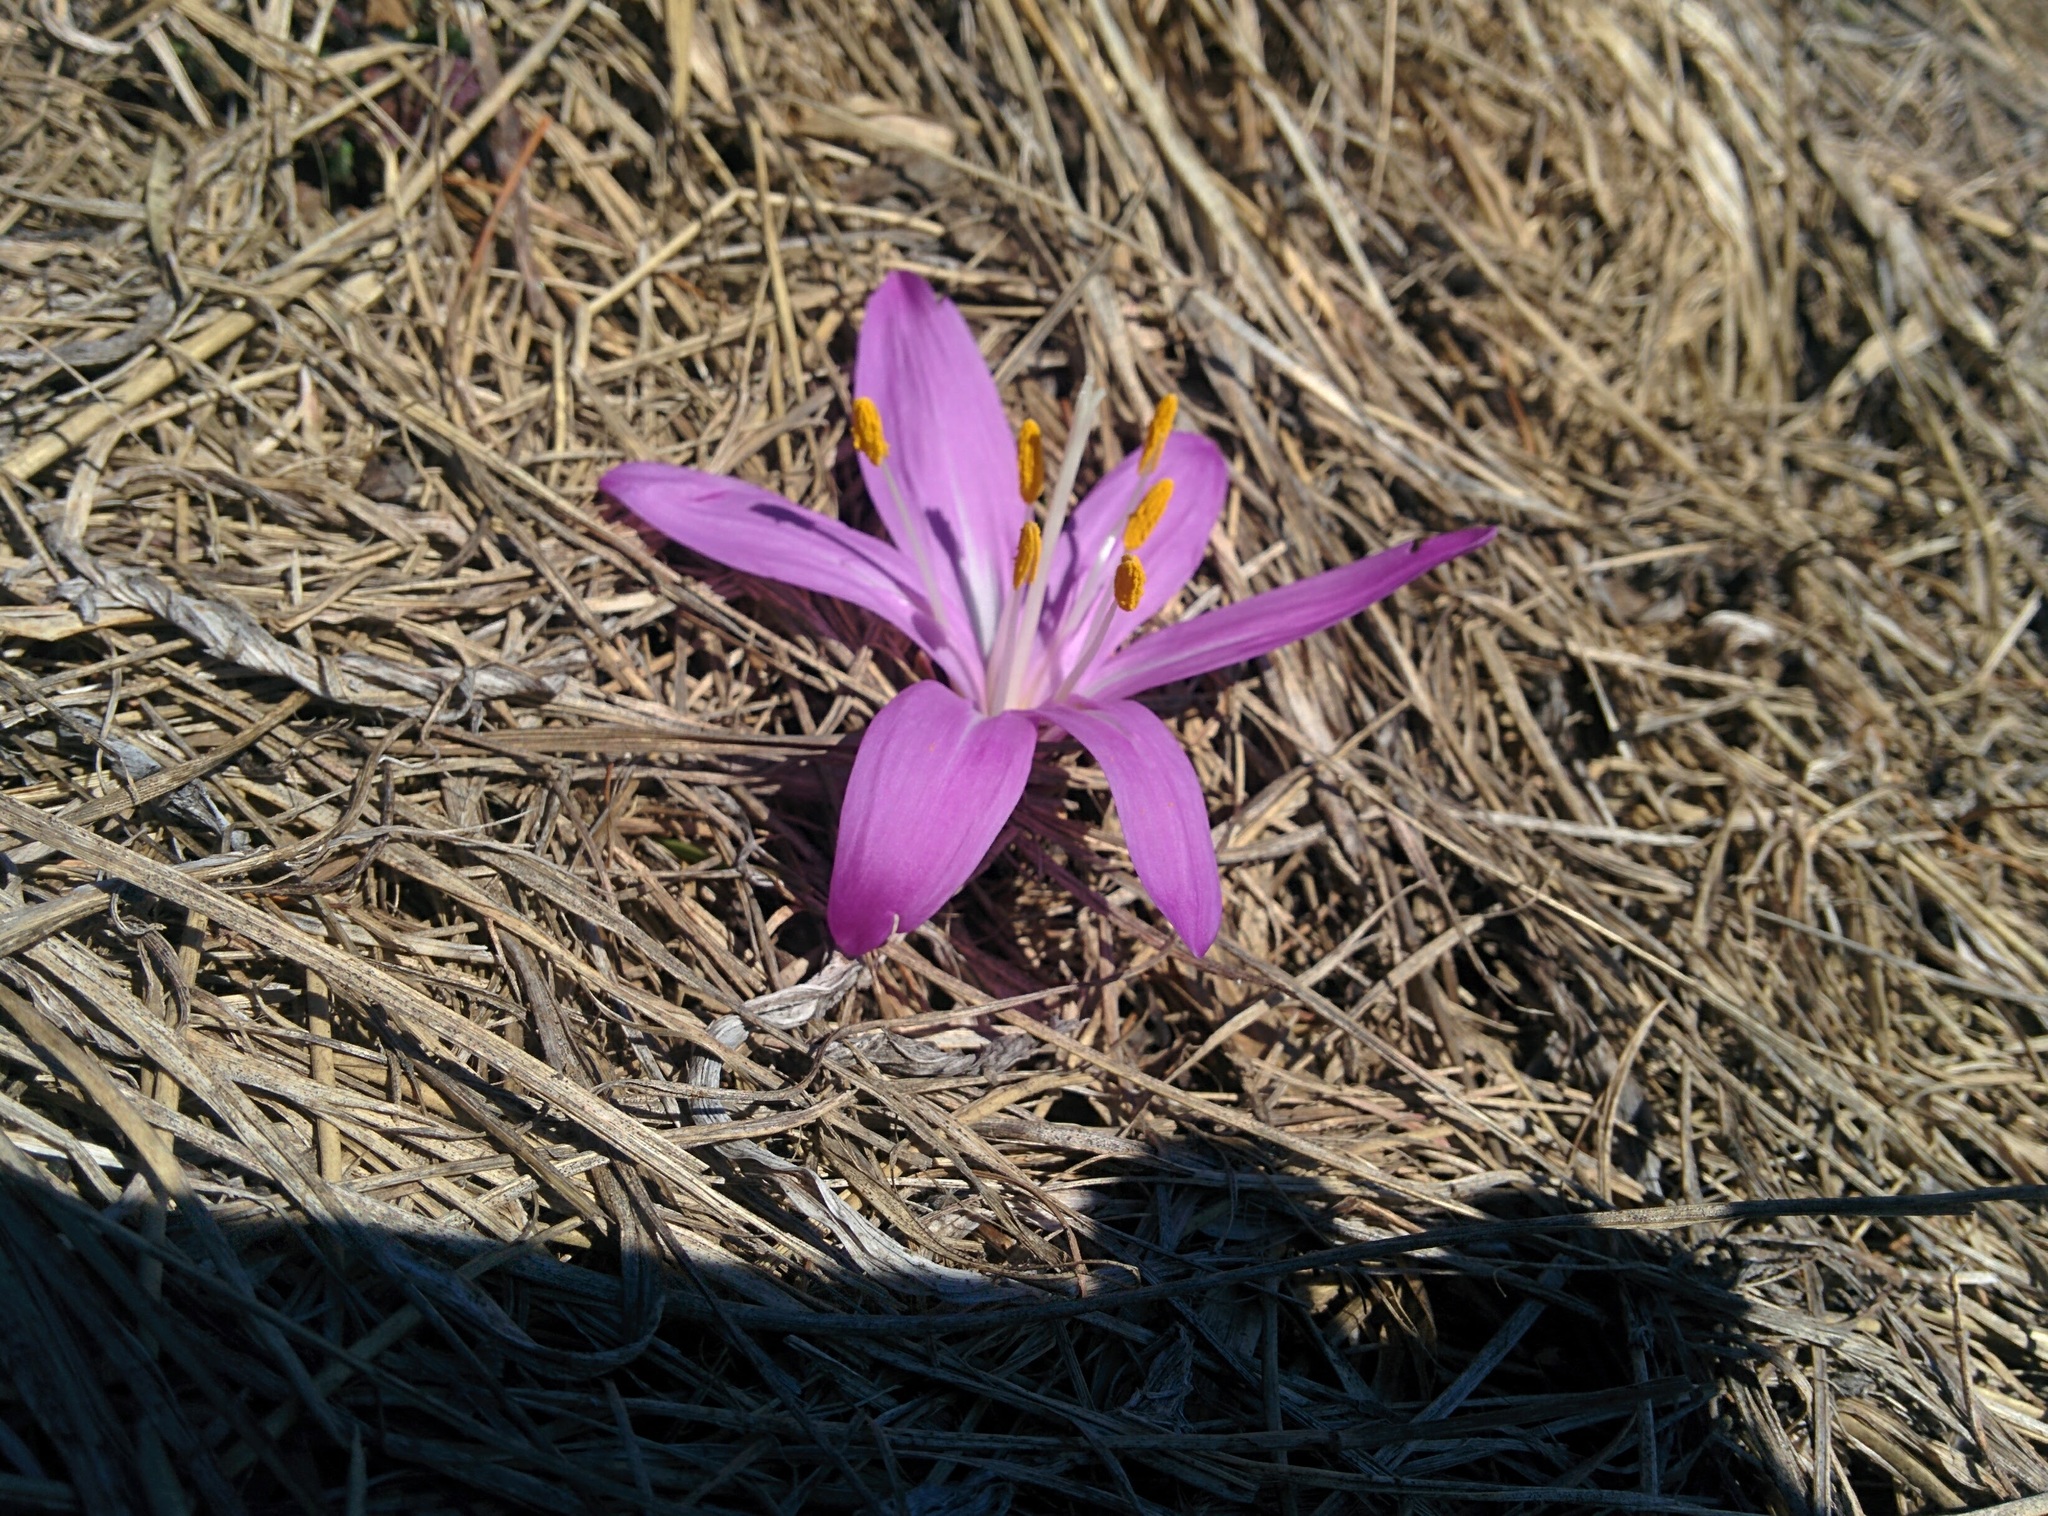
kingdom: Plantae
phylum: Tracheophyta
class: Liliopsida
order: Liliales
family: Colchicaceae
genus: Colchicum
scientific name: Colchicum bulbocodium
